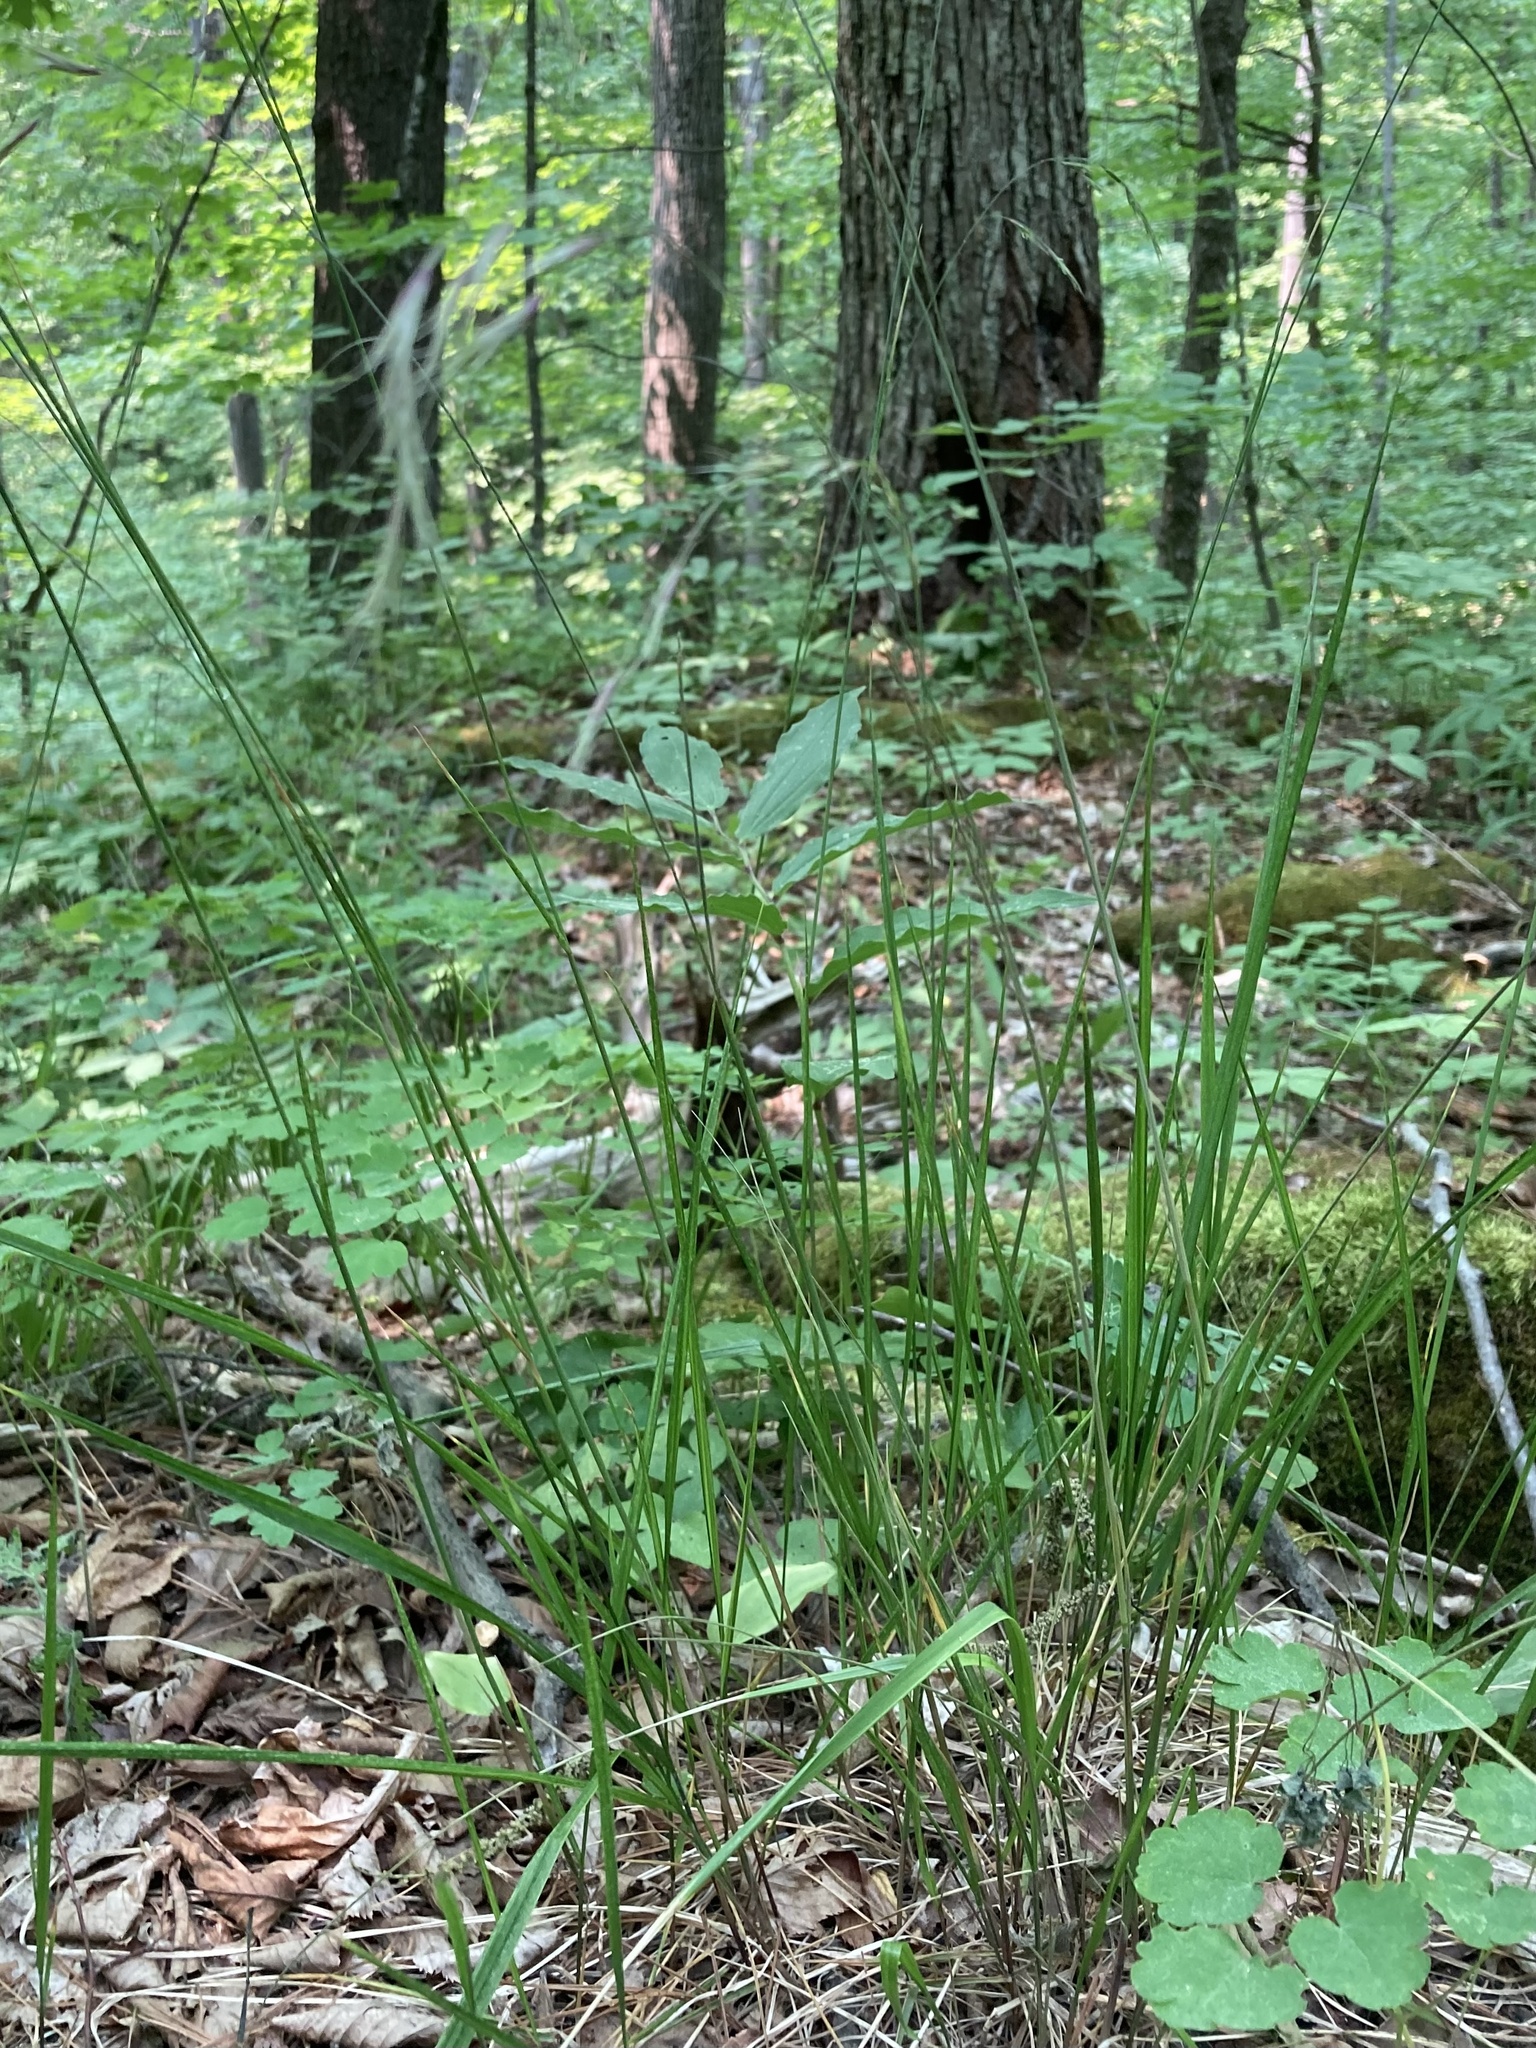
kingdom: Plantae
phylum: Tracheophyta
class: Liliopsida
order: Poales
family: Poaceae
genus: Schizachne
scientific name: Schizachne purpurascens
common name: False melic
